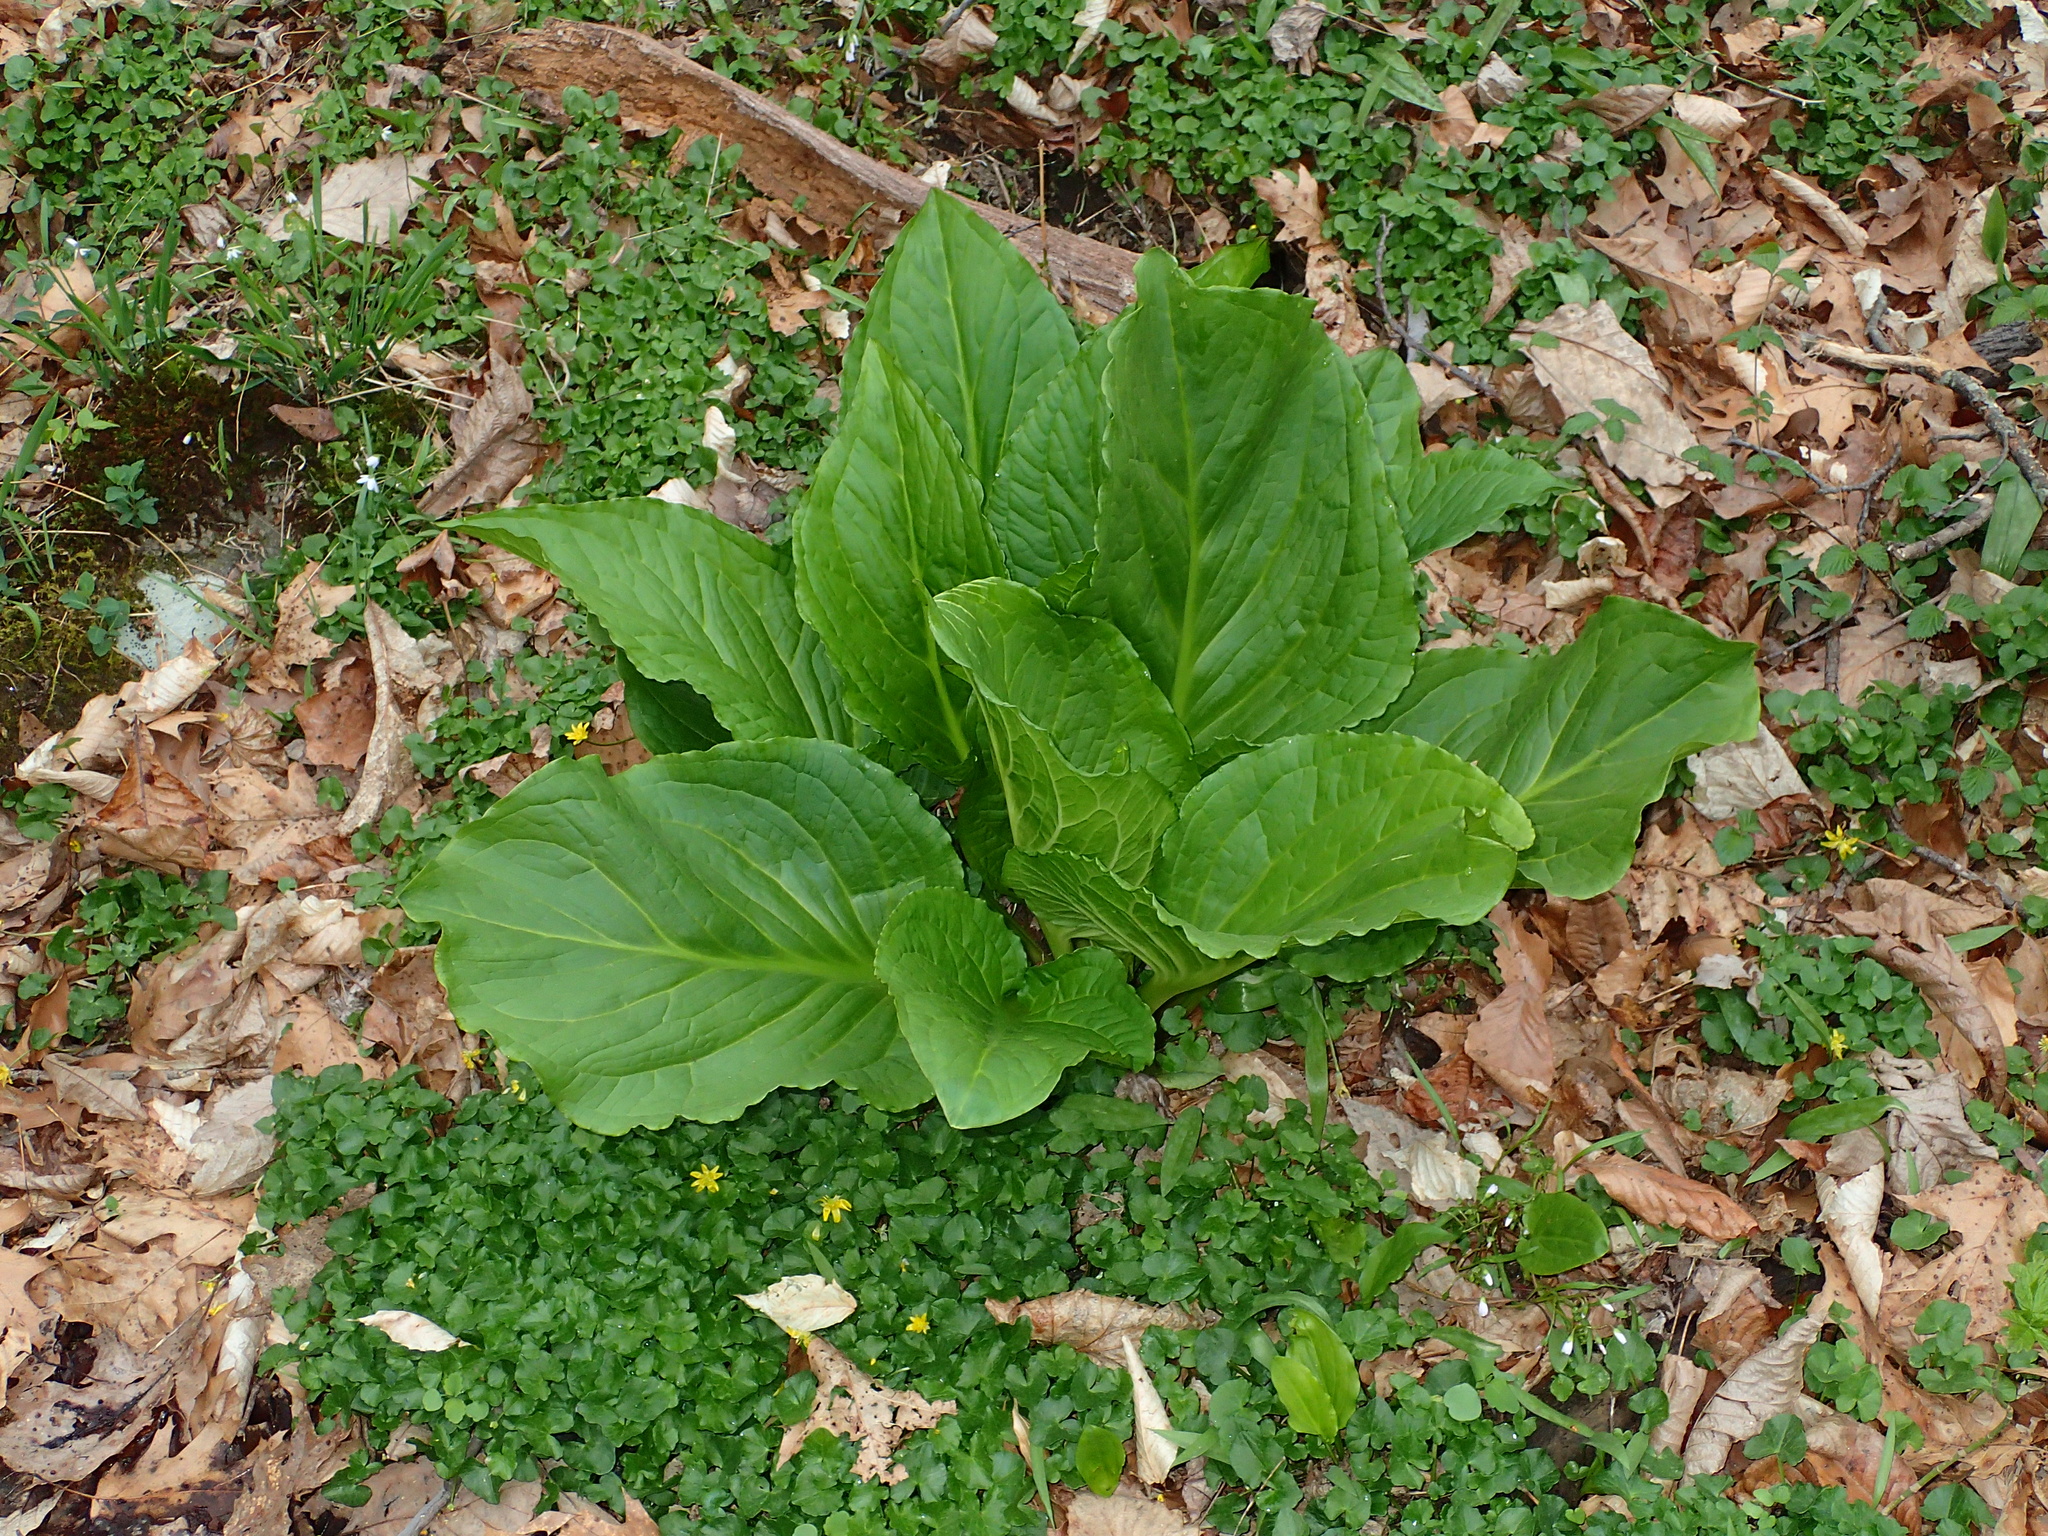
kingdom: Plantae
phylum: Tracheophyta
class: Liliopsida
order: Alismatales
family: Araceae
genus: Symplocarpus
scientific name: Symplocarpus foetidus
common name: Eastern skunk cabbage
